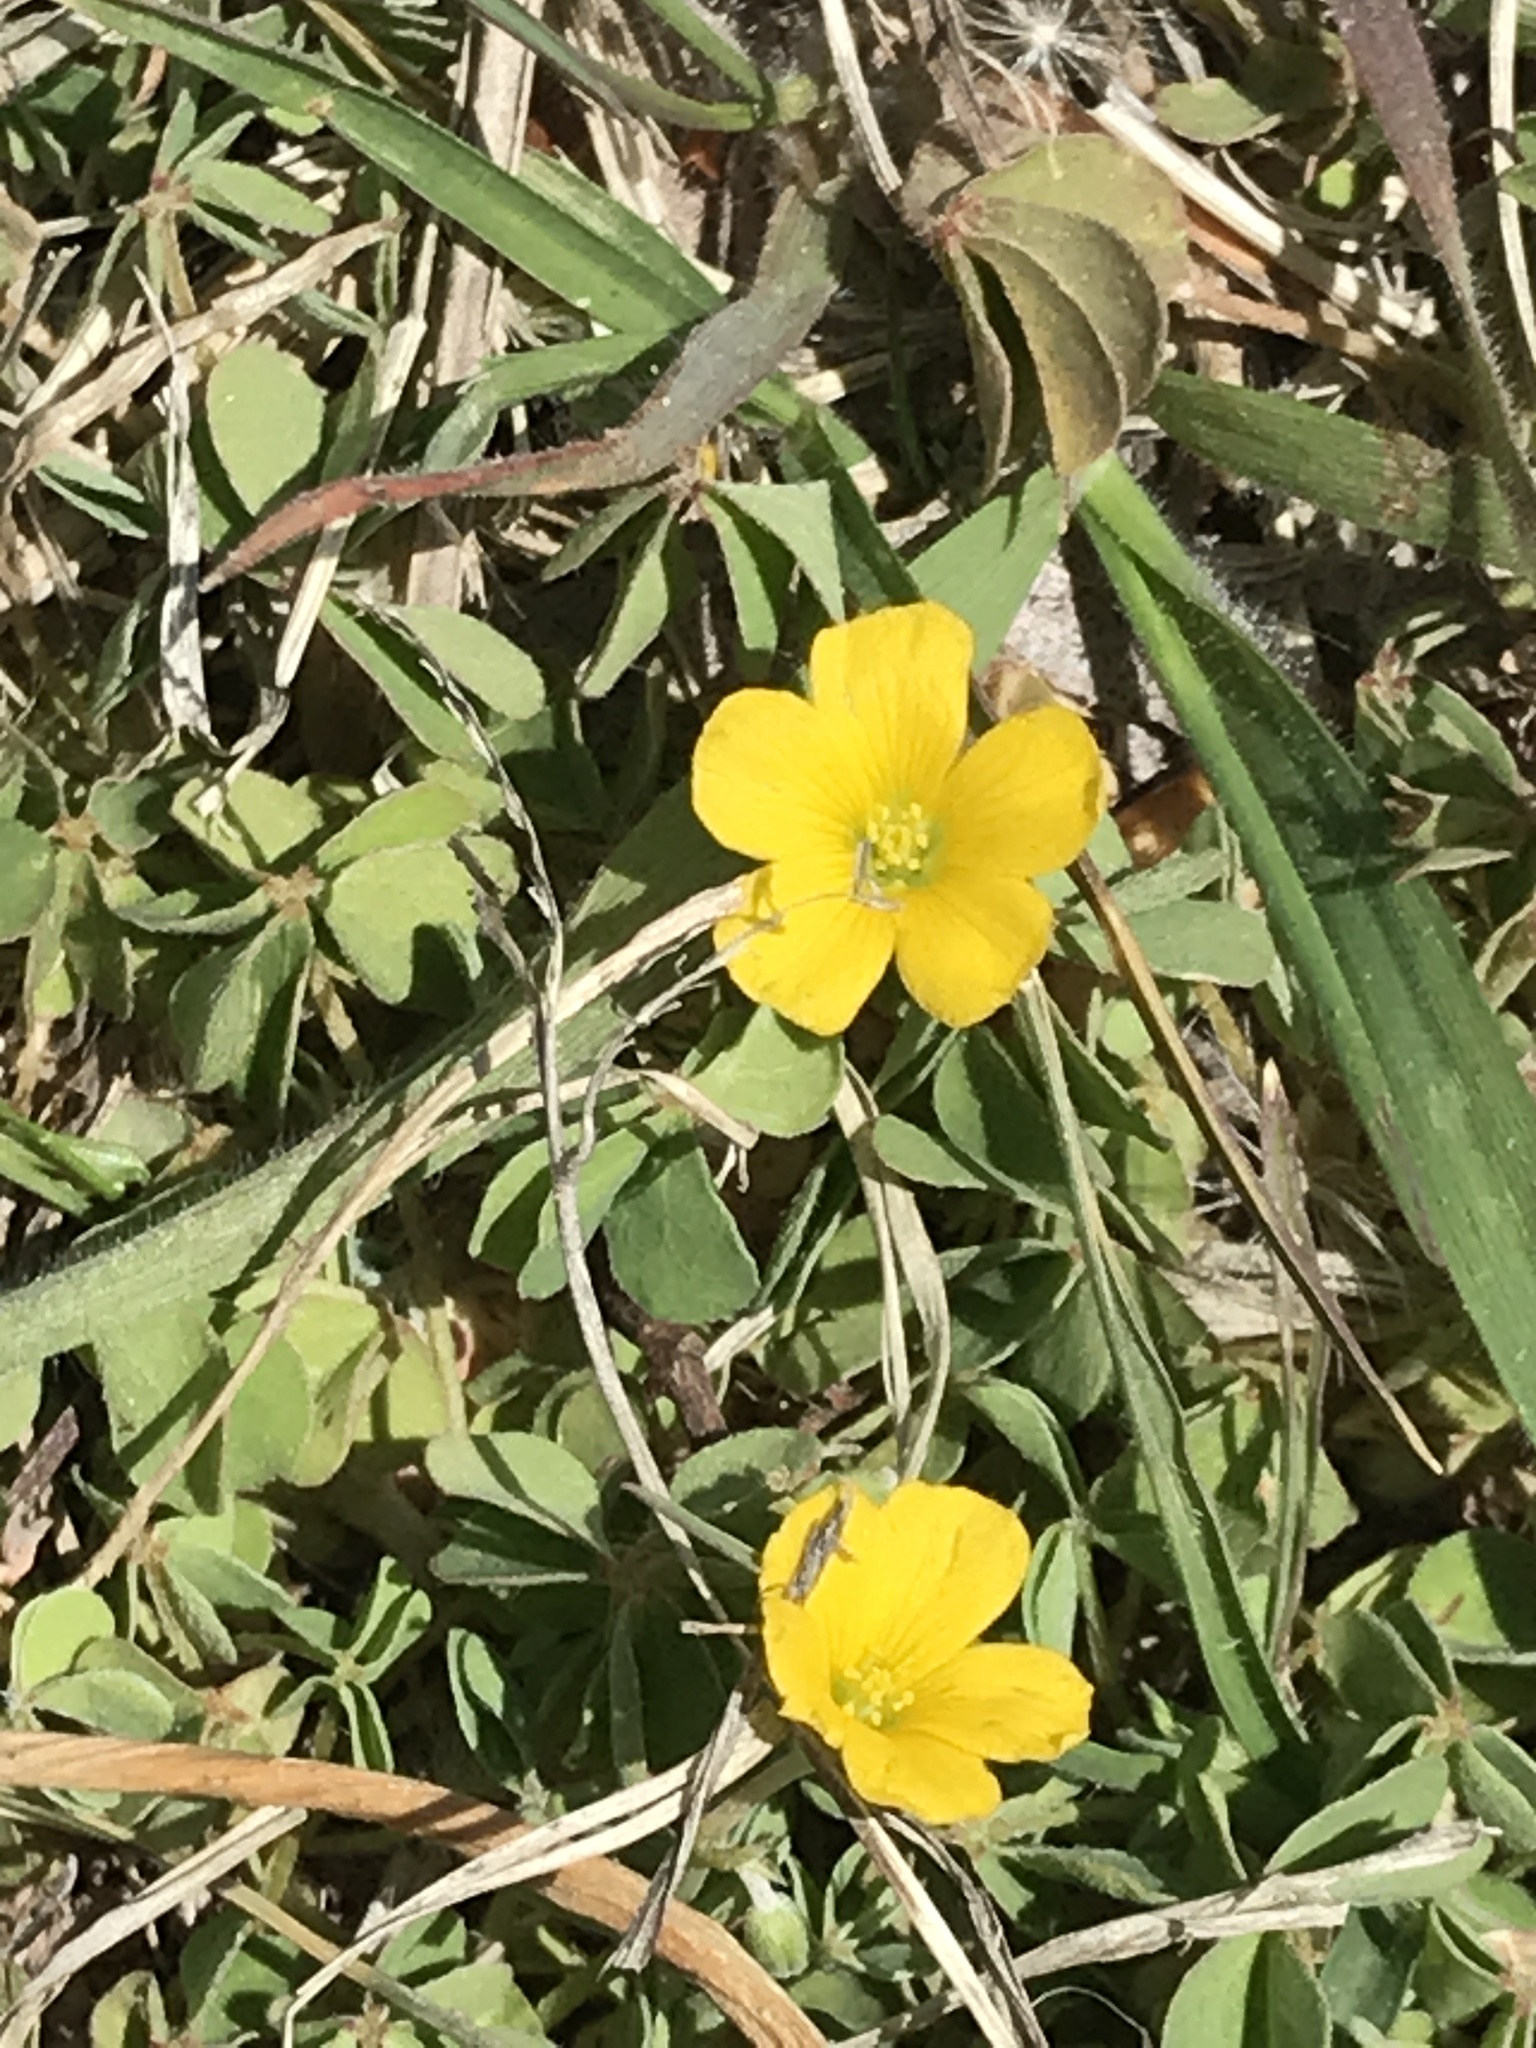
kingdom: Plantae
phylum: Tracheophyta
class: Magnoliopsida
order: Oxalidales
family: Oxalidaceae
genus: Oxalis
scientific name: Oxalis corniculata
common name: Procumbent yellow-sorrel
